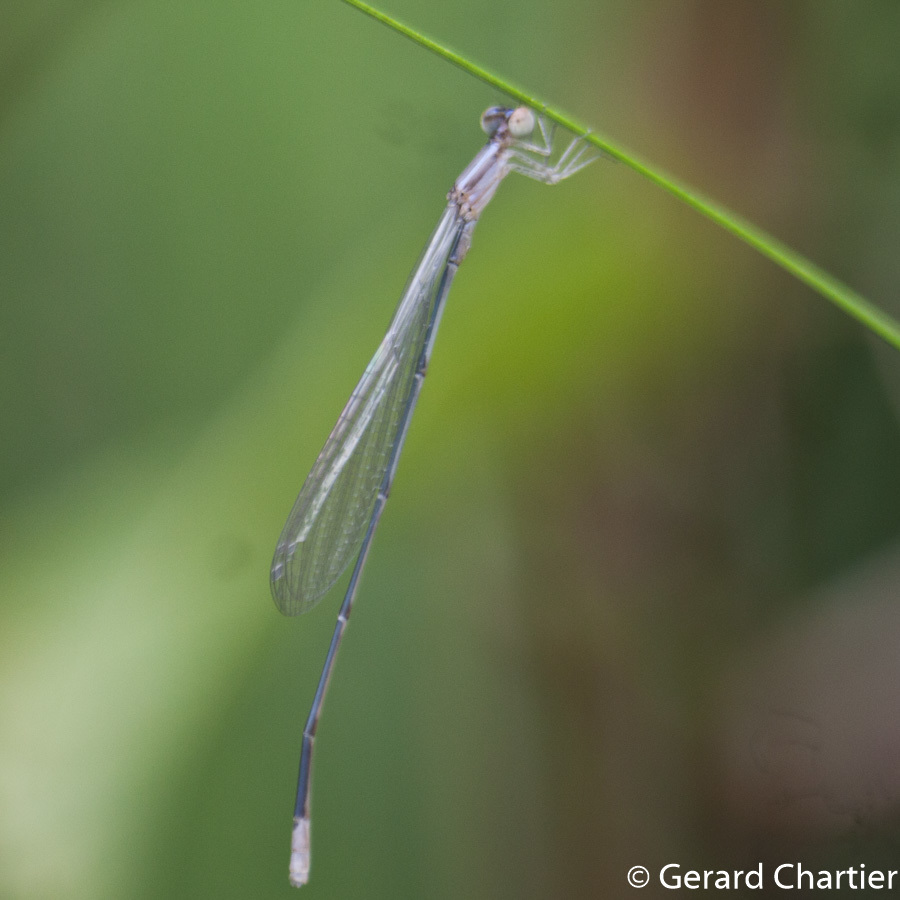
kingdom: Animalia
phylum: Arthropoda
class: Insecta
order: Odonata
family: Coenagrionidae
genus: Aciagrion
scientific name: Aciagrion hisopa
